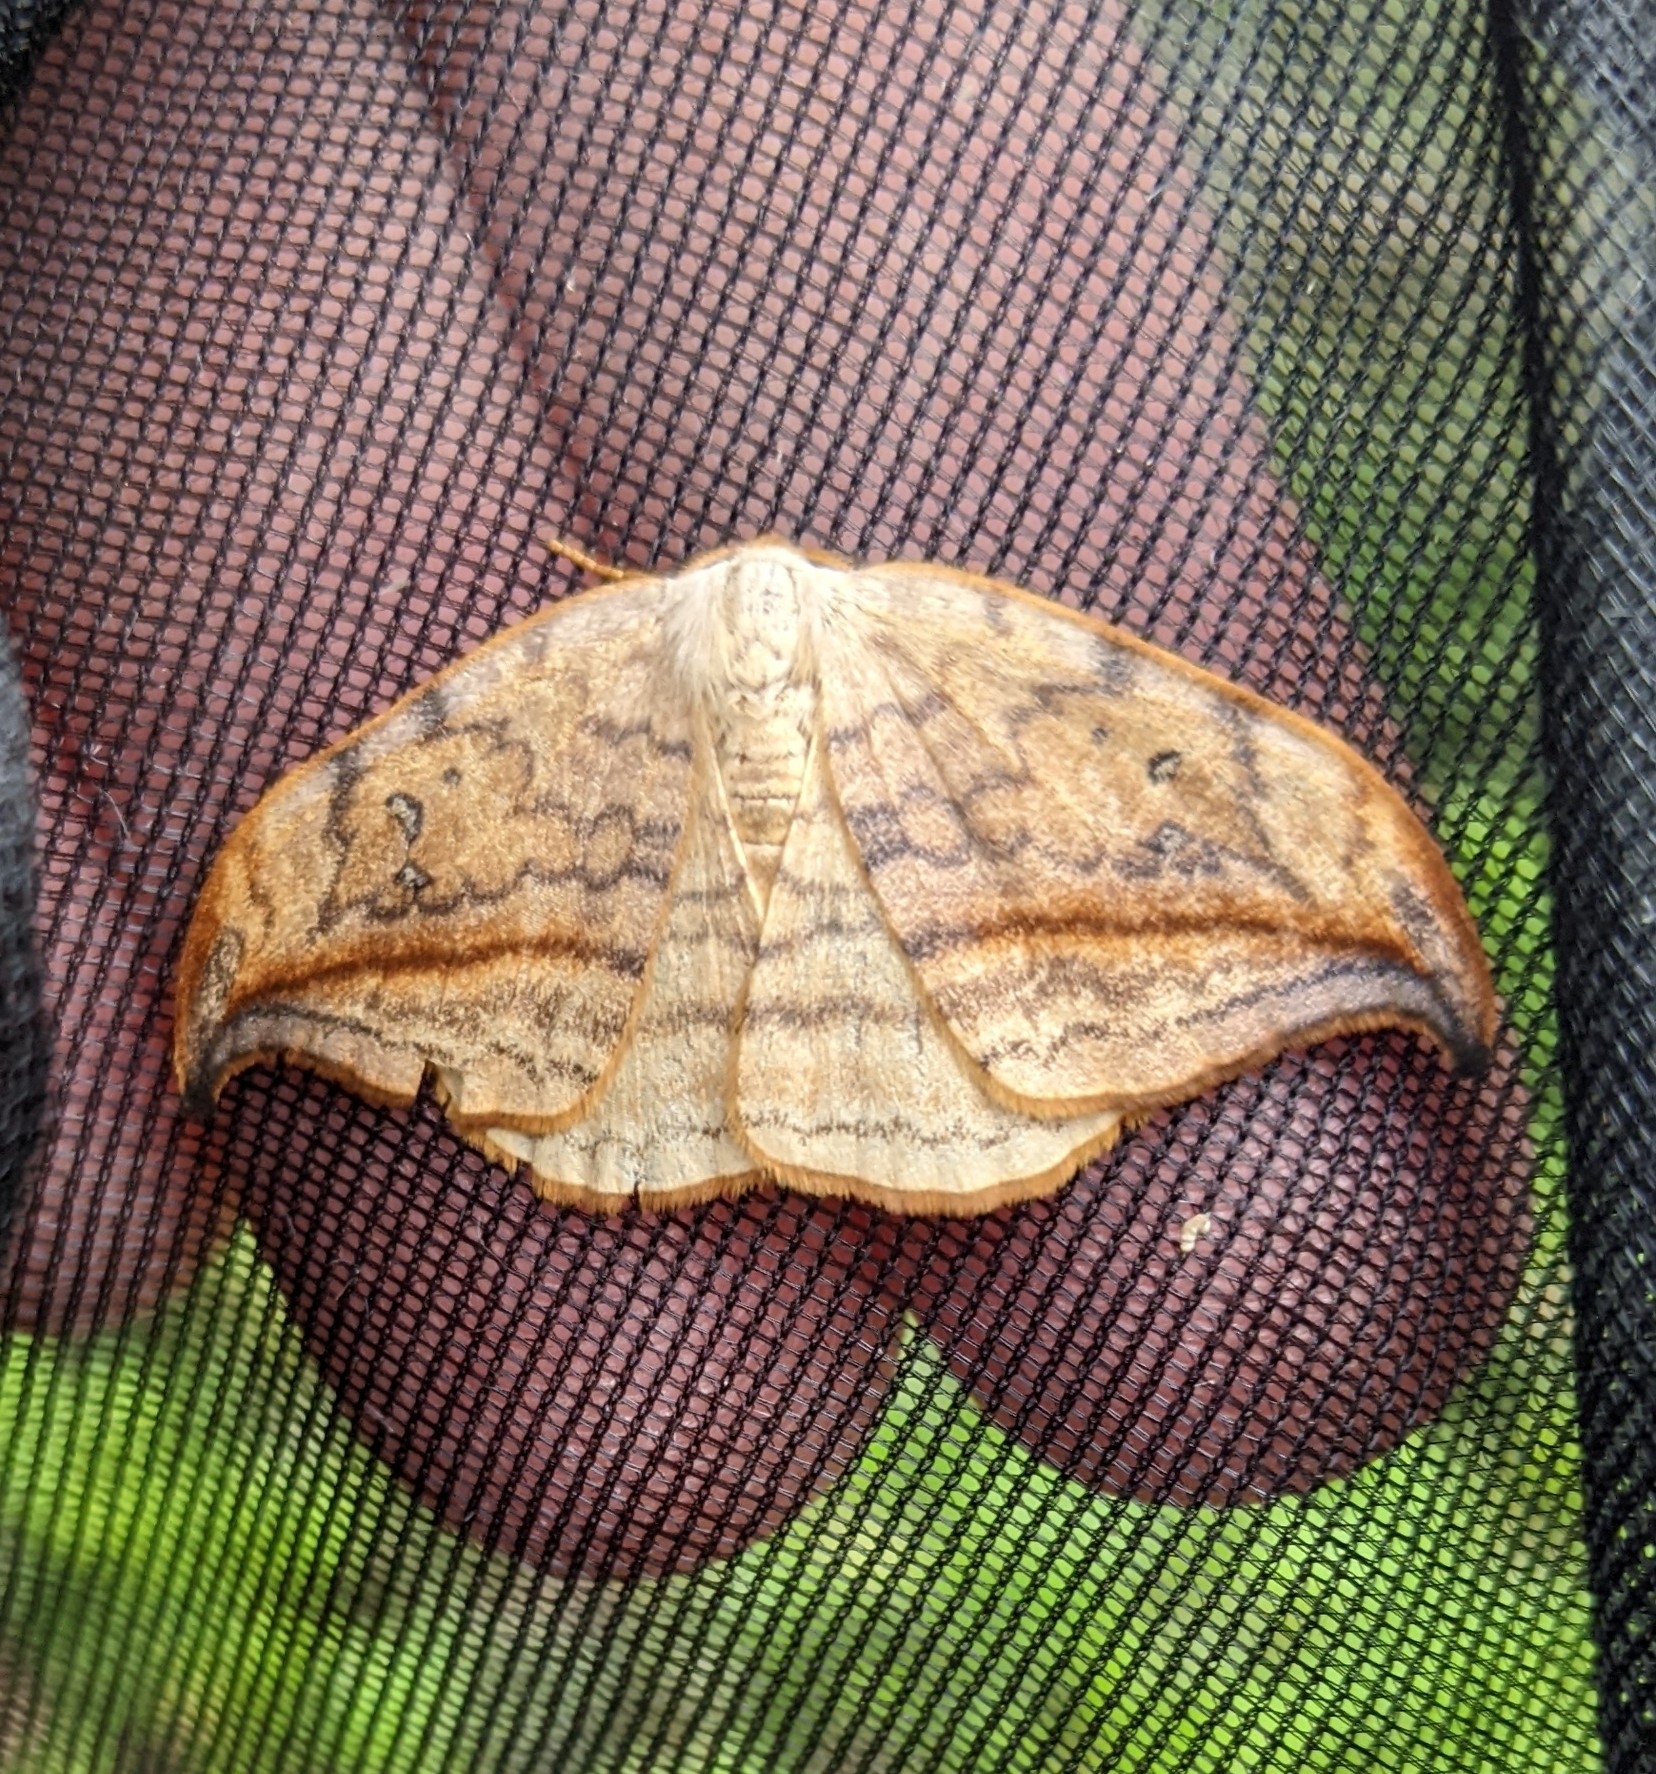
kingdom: Animalia
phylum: Arthropoda
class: Insecta
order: Lepidoptera
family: Drepanidae
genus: Drepana
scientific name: Drepana arcuata
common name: Arched hooktip moth
